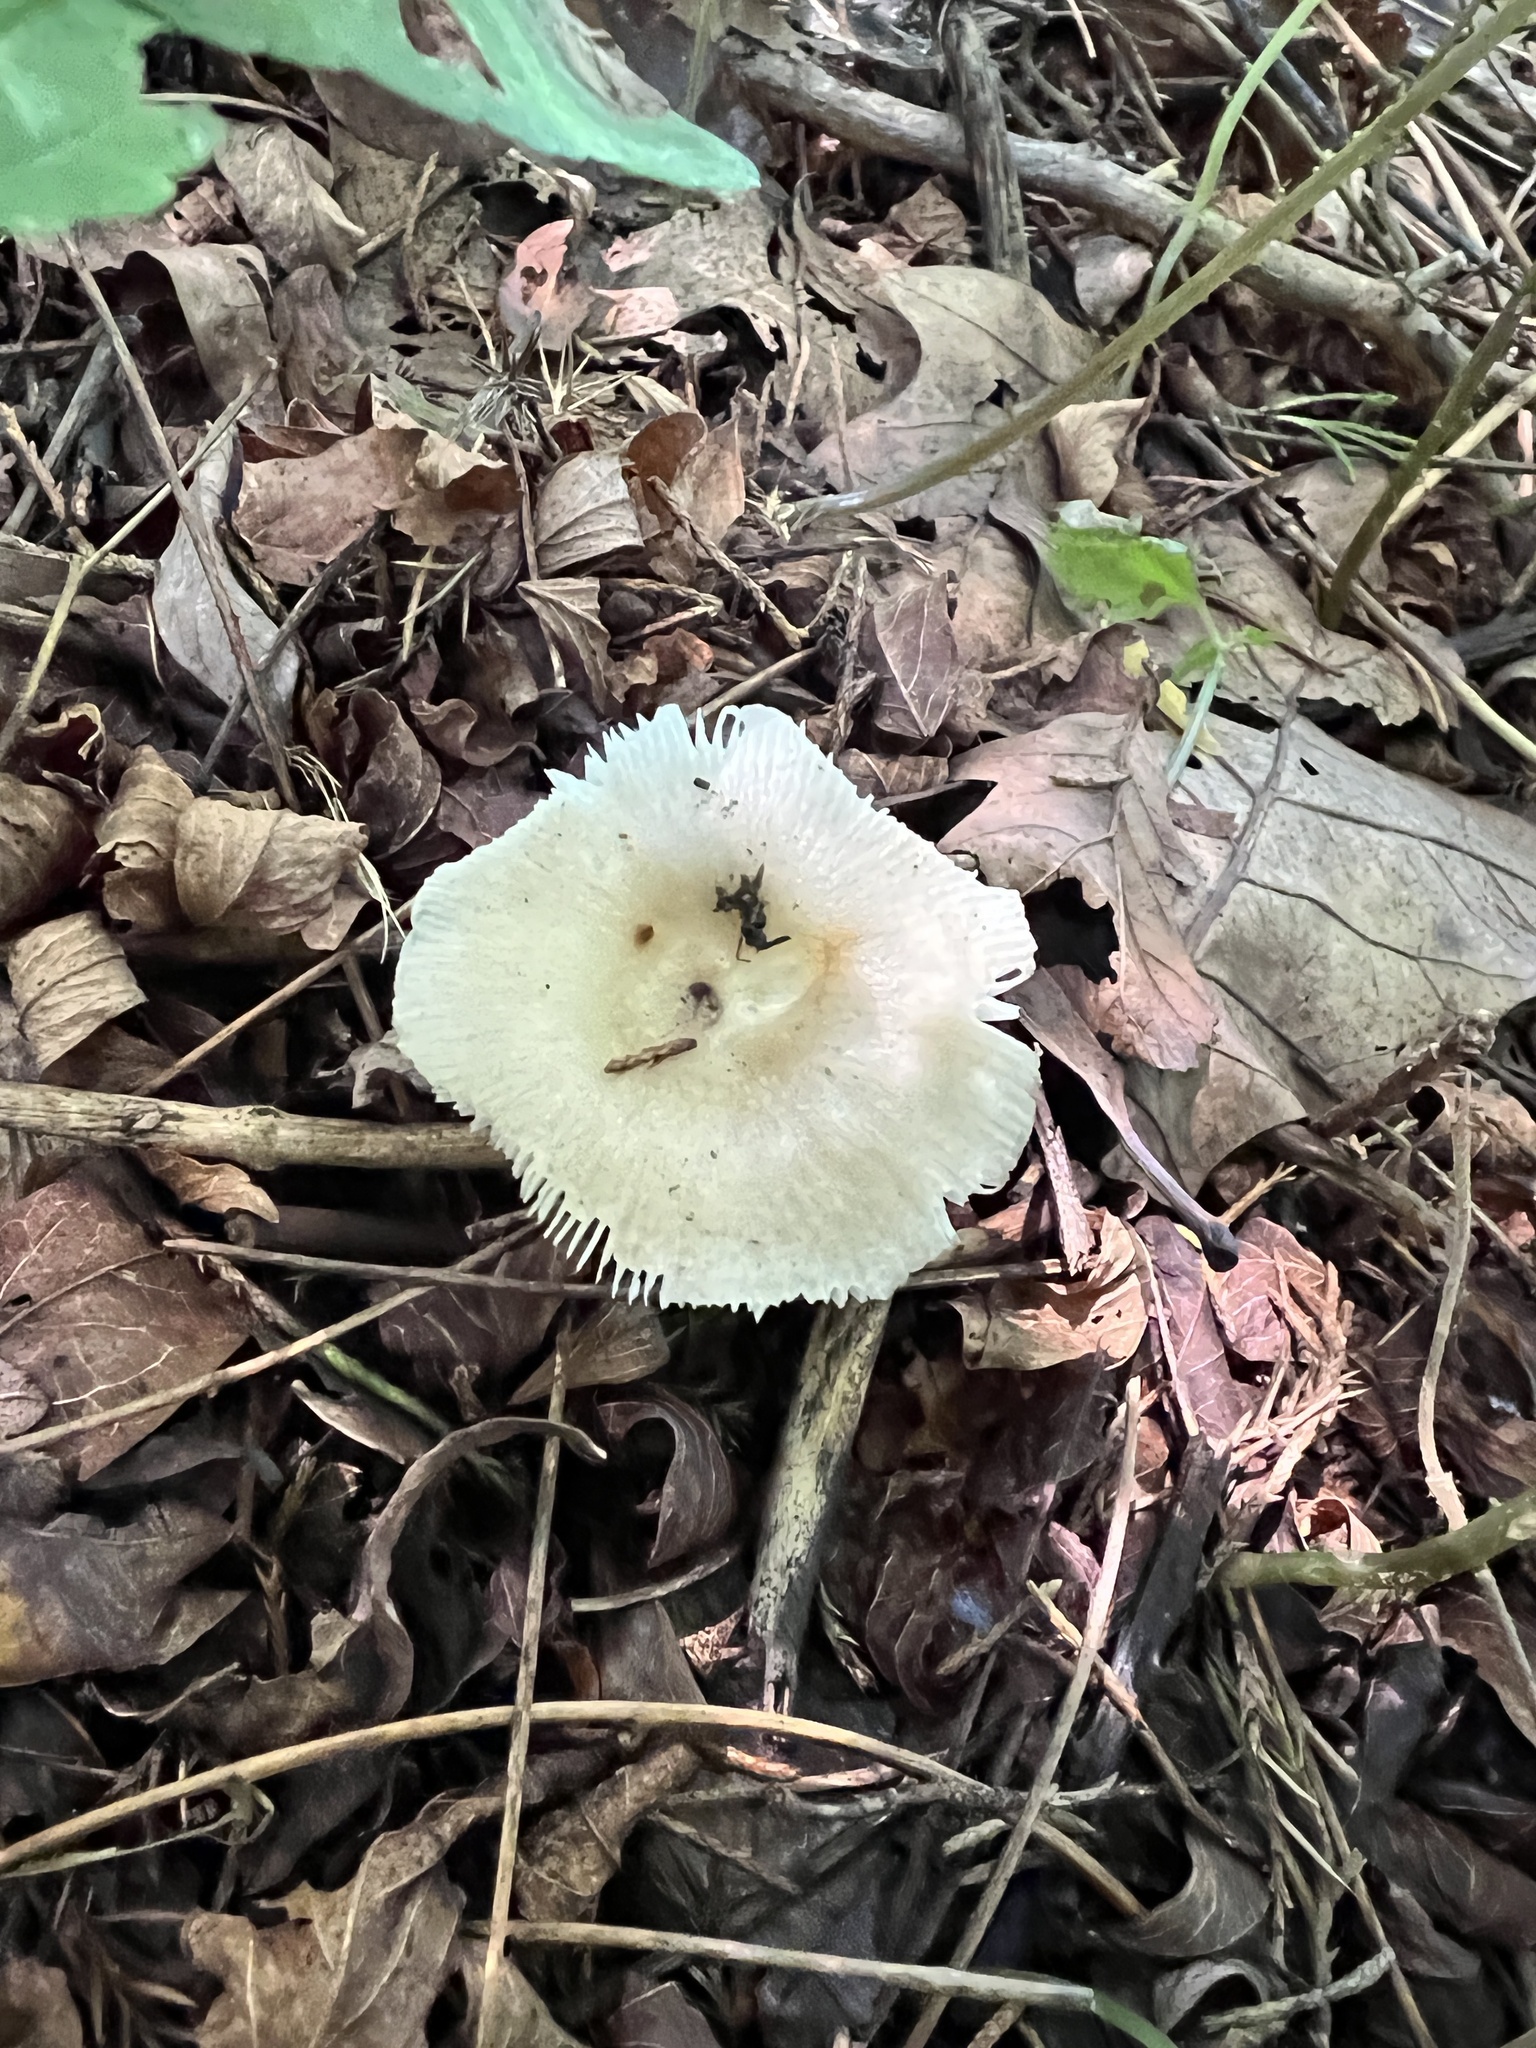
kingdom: Fungi
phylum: Basidiomycota
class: Agaricomycetes
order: Russulales
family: Russulaceae
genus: Russula
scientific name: Russula amoenolens
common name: Camembert brittlegill
